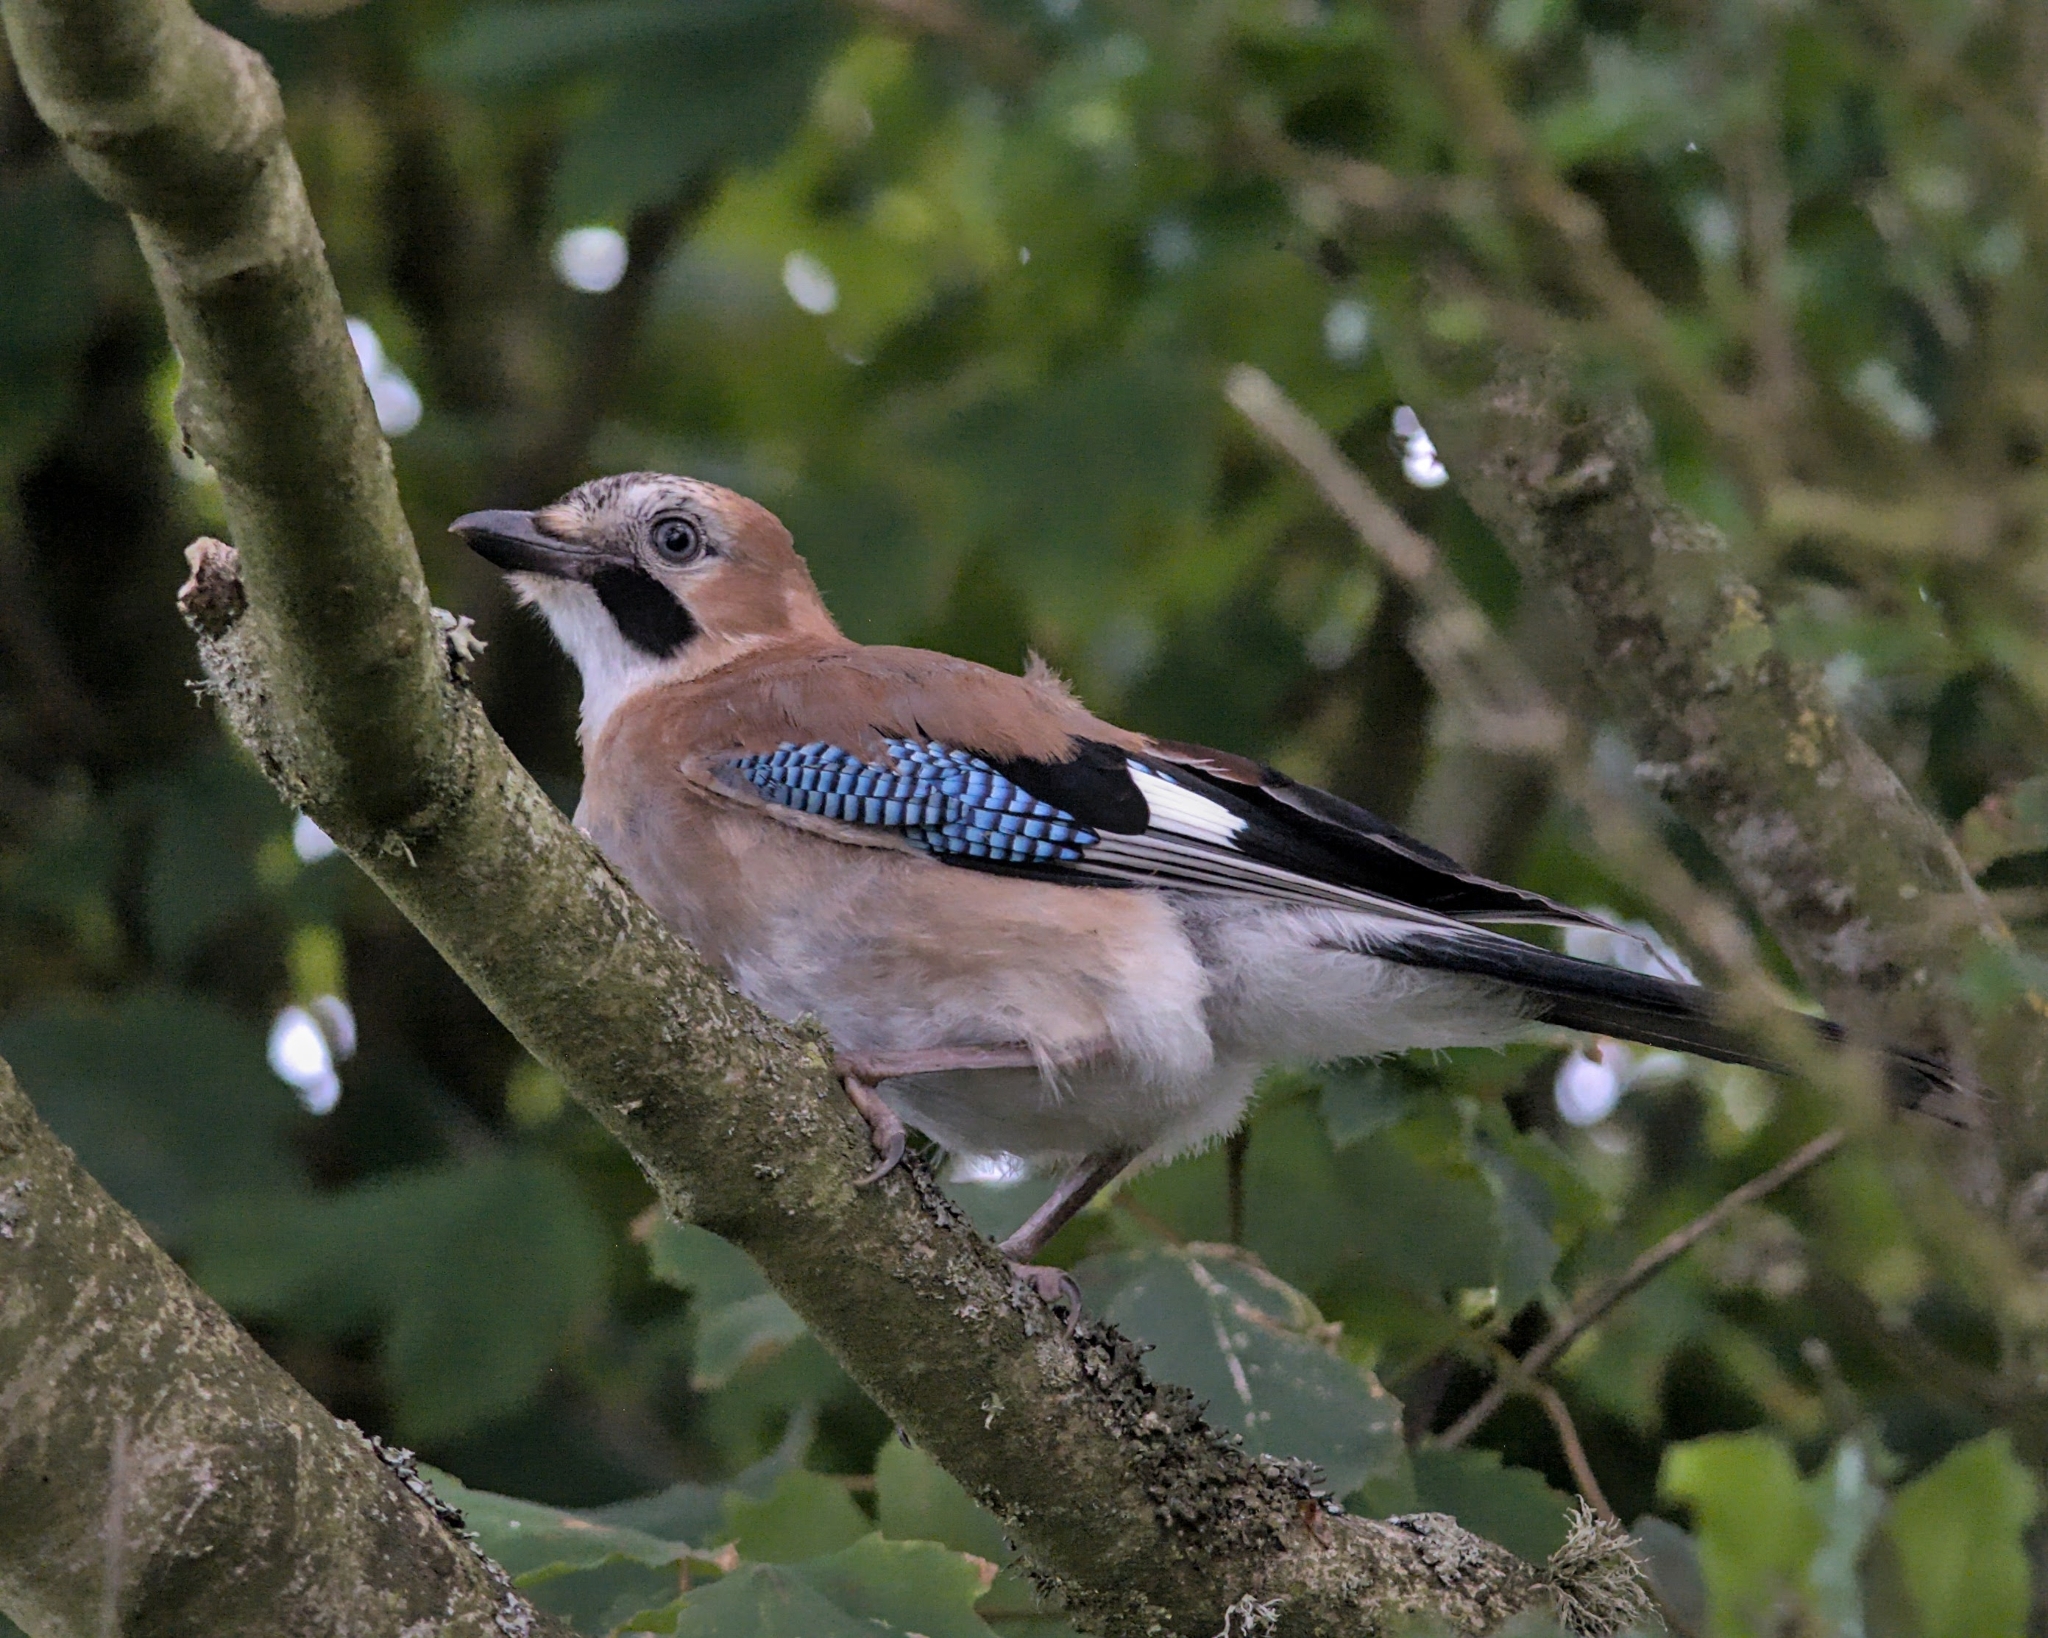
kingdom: Animalia
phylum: Chordata
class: Aves
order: Passeriformes
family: Corvidae
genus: Garrulus
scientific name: Garrulus glandarius
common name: Eurasian jay
